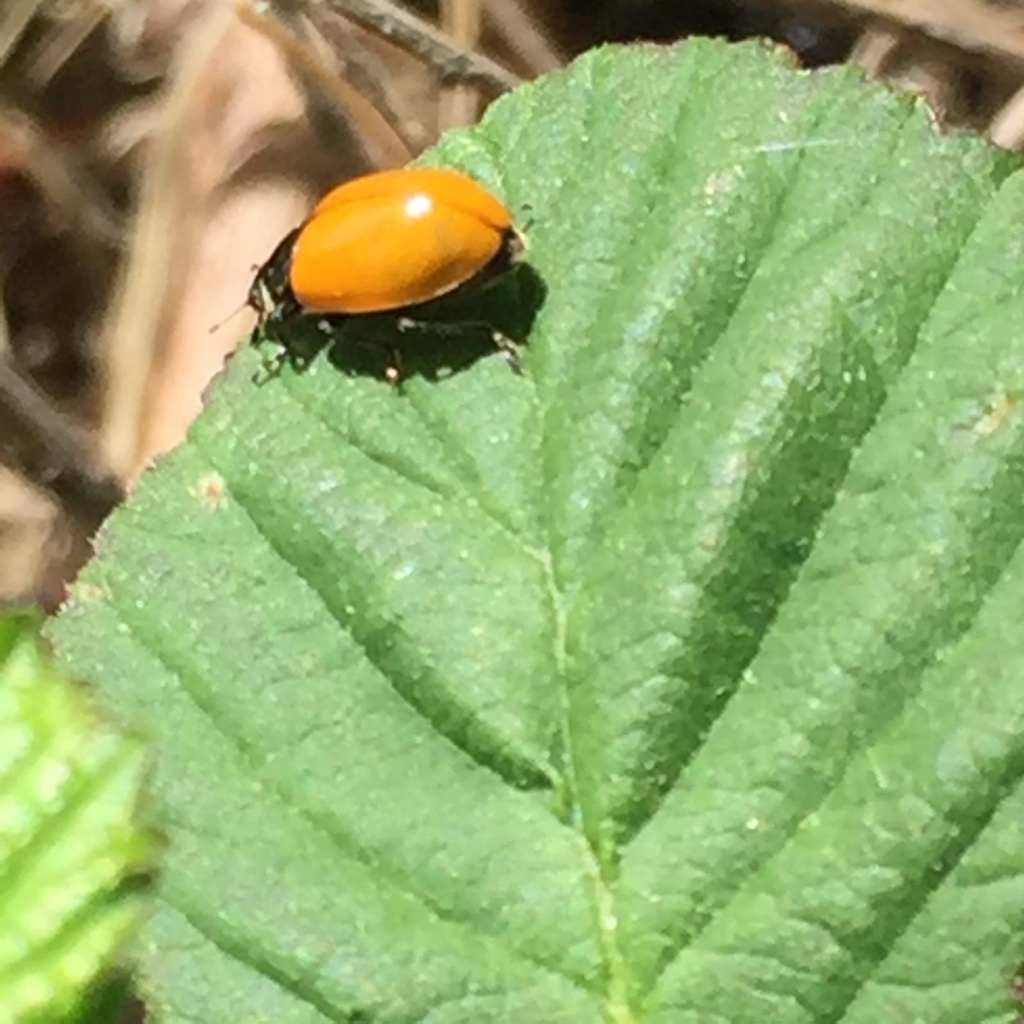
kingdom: Animalia
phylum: Arthropoda
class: Insecta
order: Coleoptera
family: Coccinellidae
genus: Hippodamia
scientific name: Hippodamia quinquesignata
